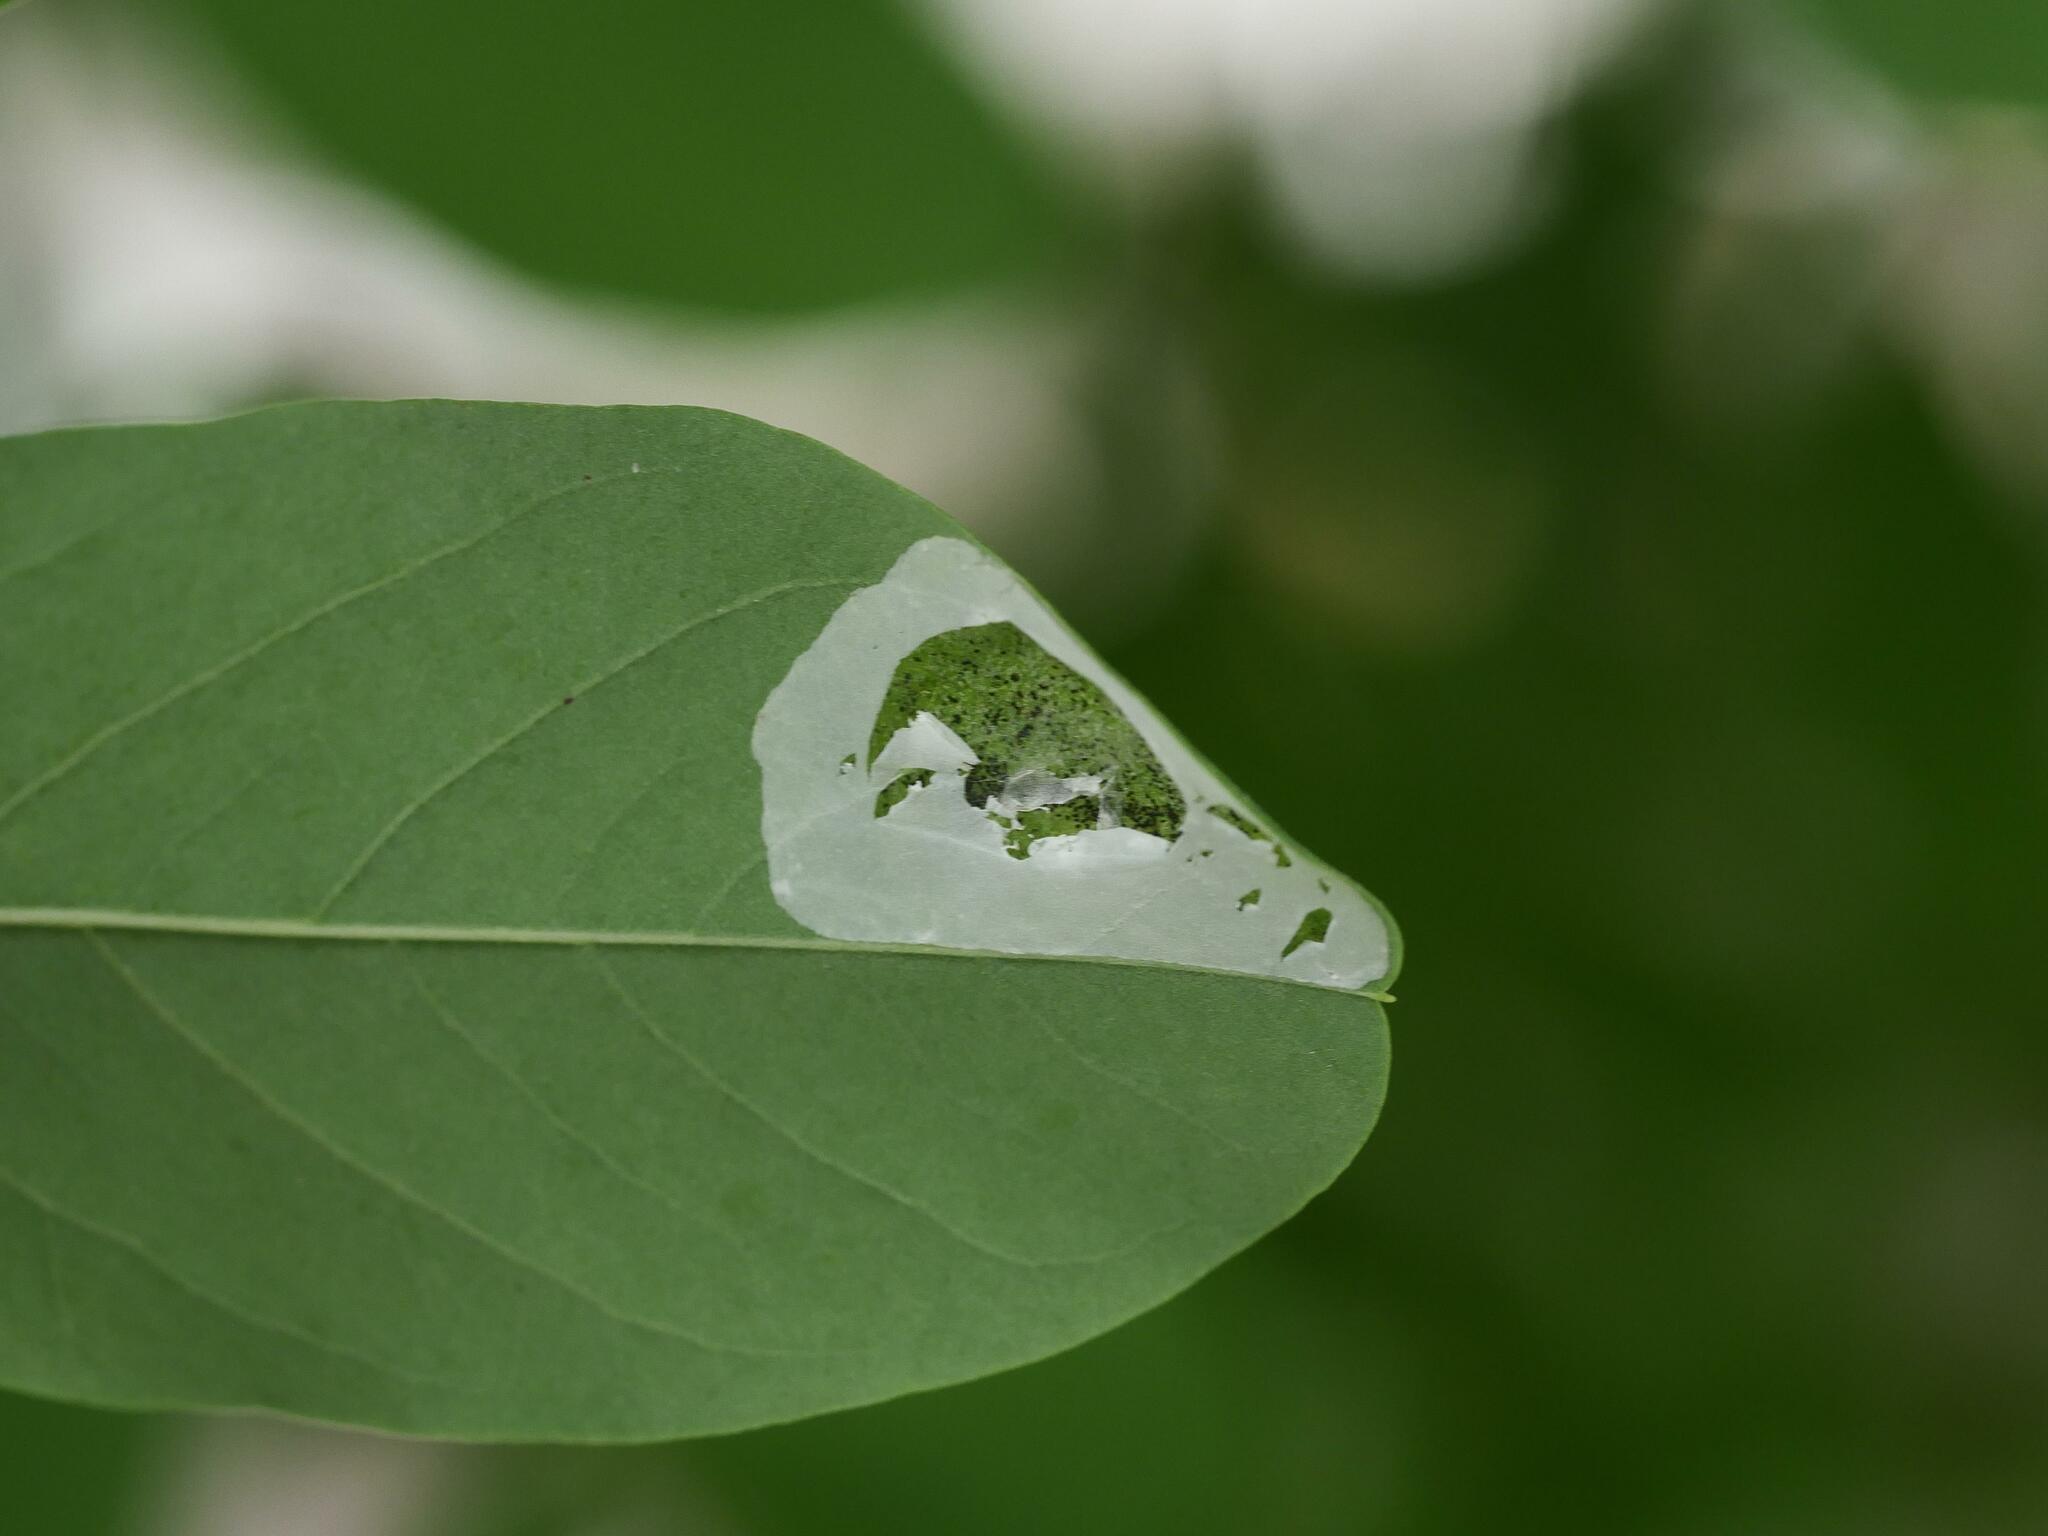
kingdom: Animalia
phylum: Arthropoda
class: Insecta
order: Lepidoptera
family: Gracillariidae
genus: Macrosaccus
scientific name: Macrosaccus robiniella
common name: Leaf blotch miner moth
